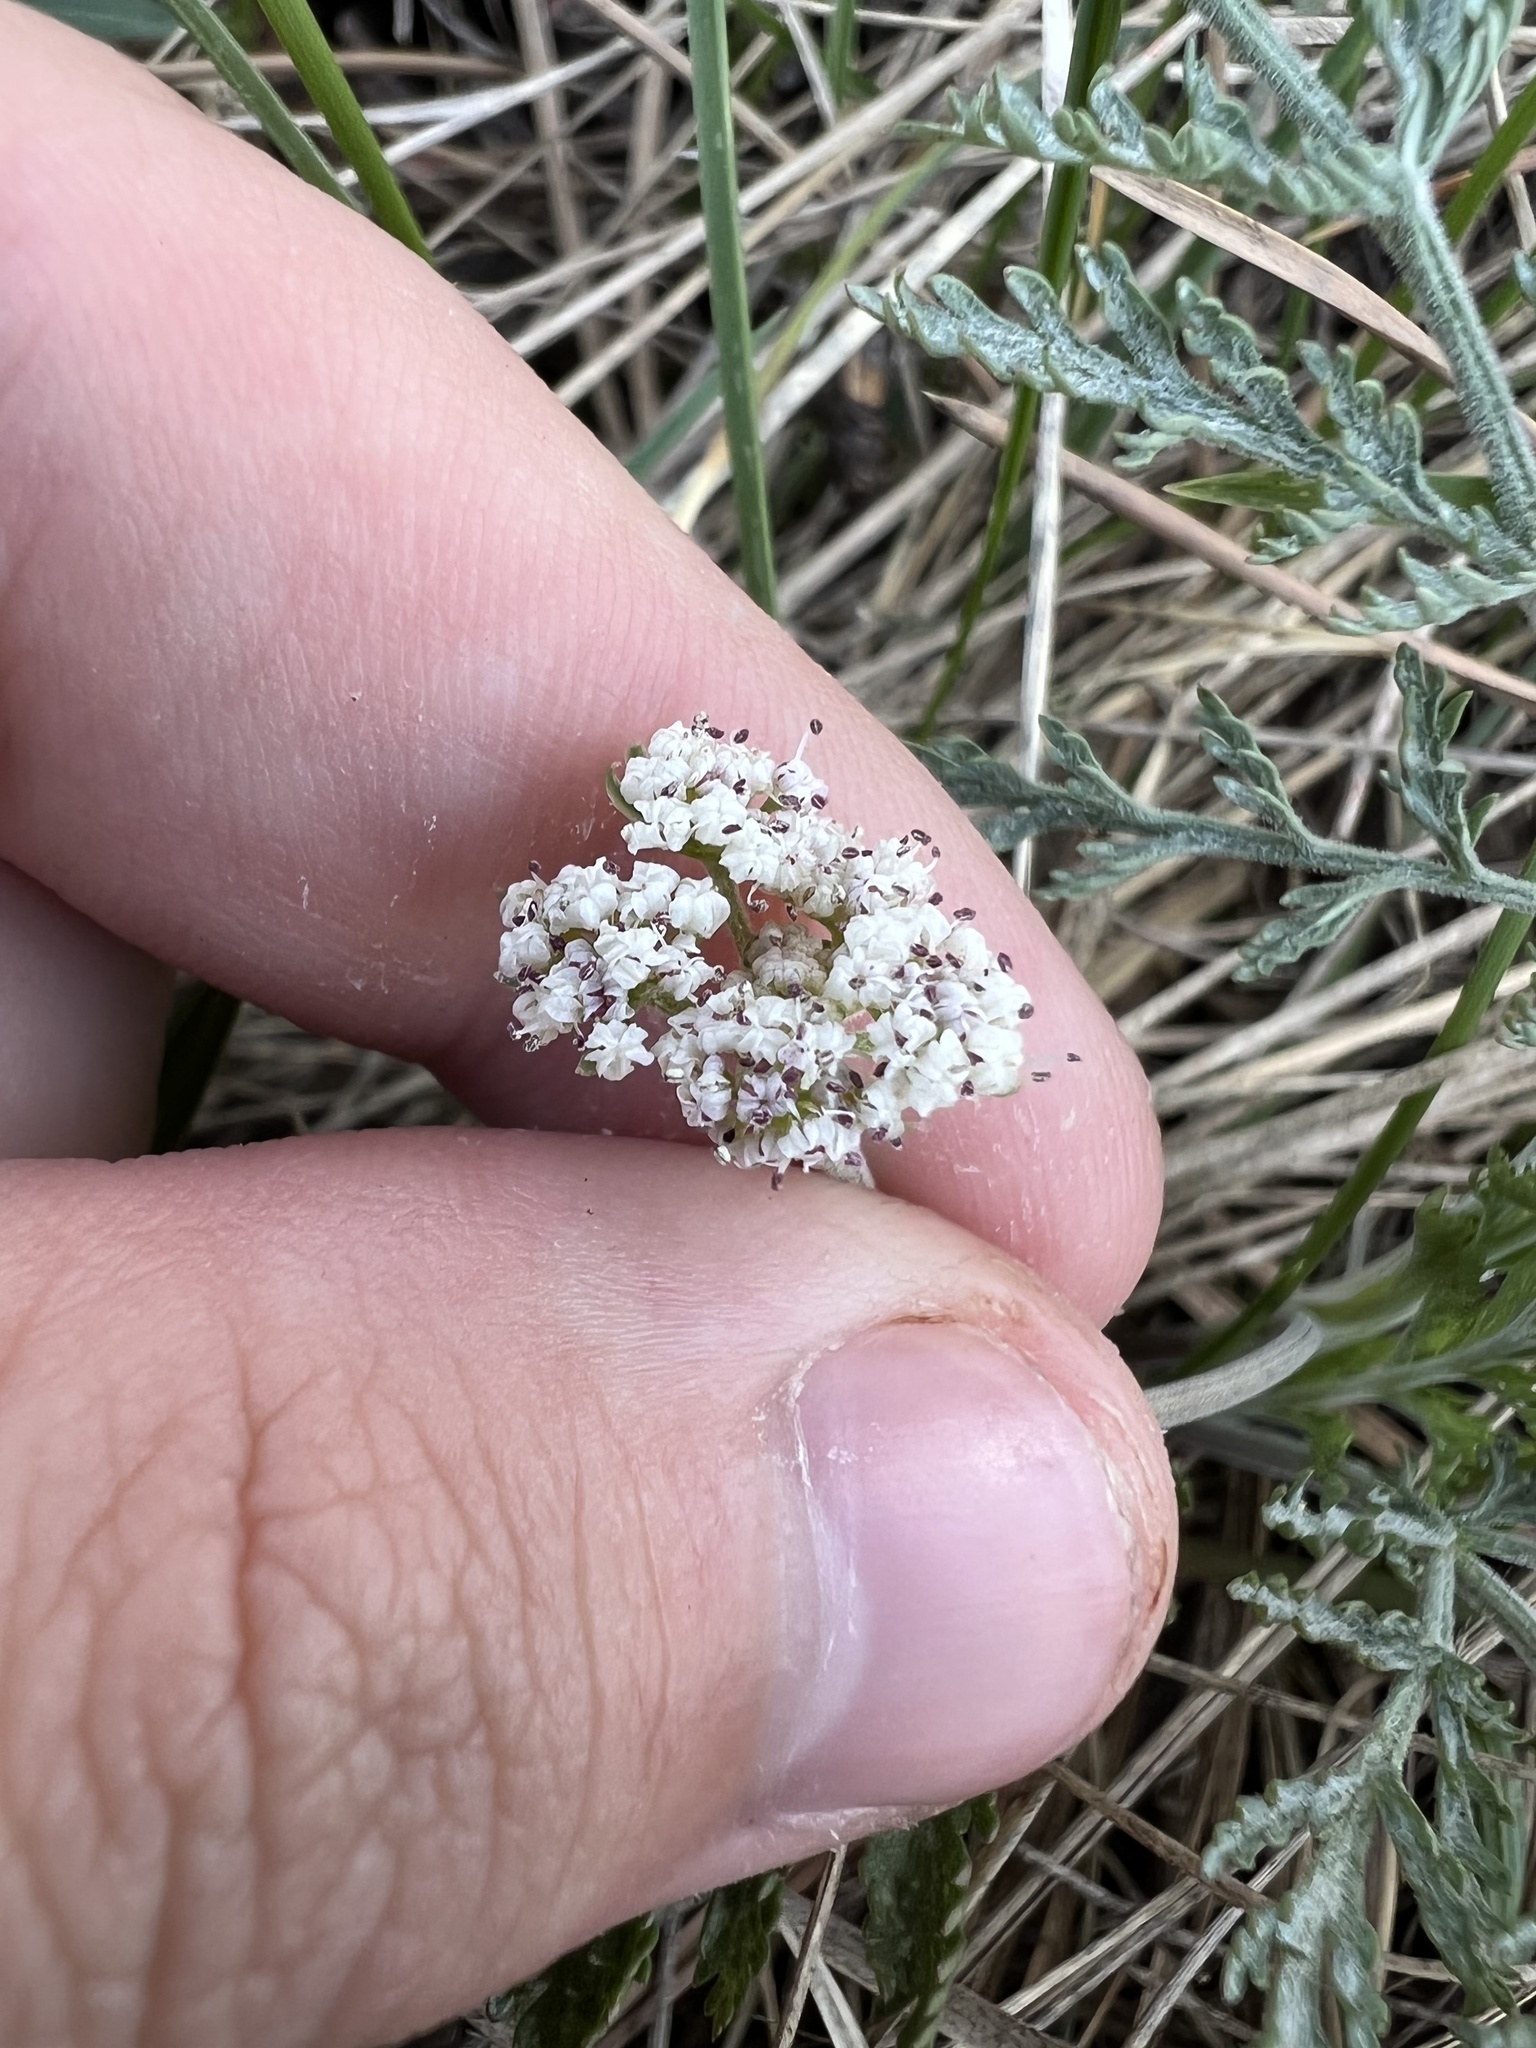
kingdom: Plantae
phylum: Tracheophyta
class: Magnoliopsida
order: Apiales
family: Apiaceae
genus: Lomatium
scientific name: Lomatium orientale
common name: Eastern cous
